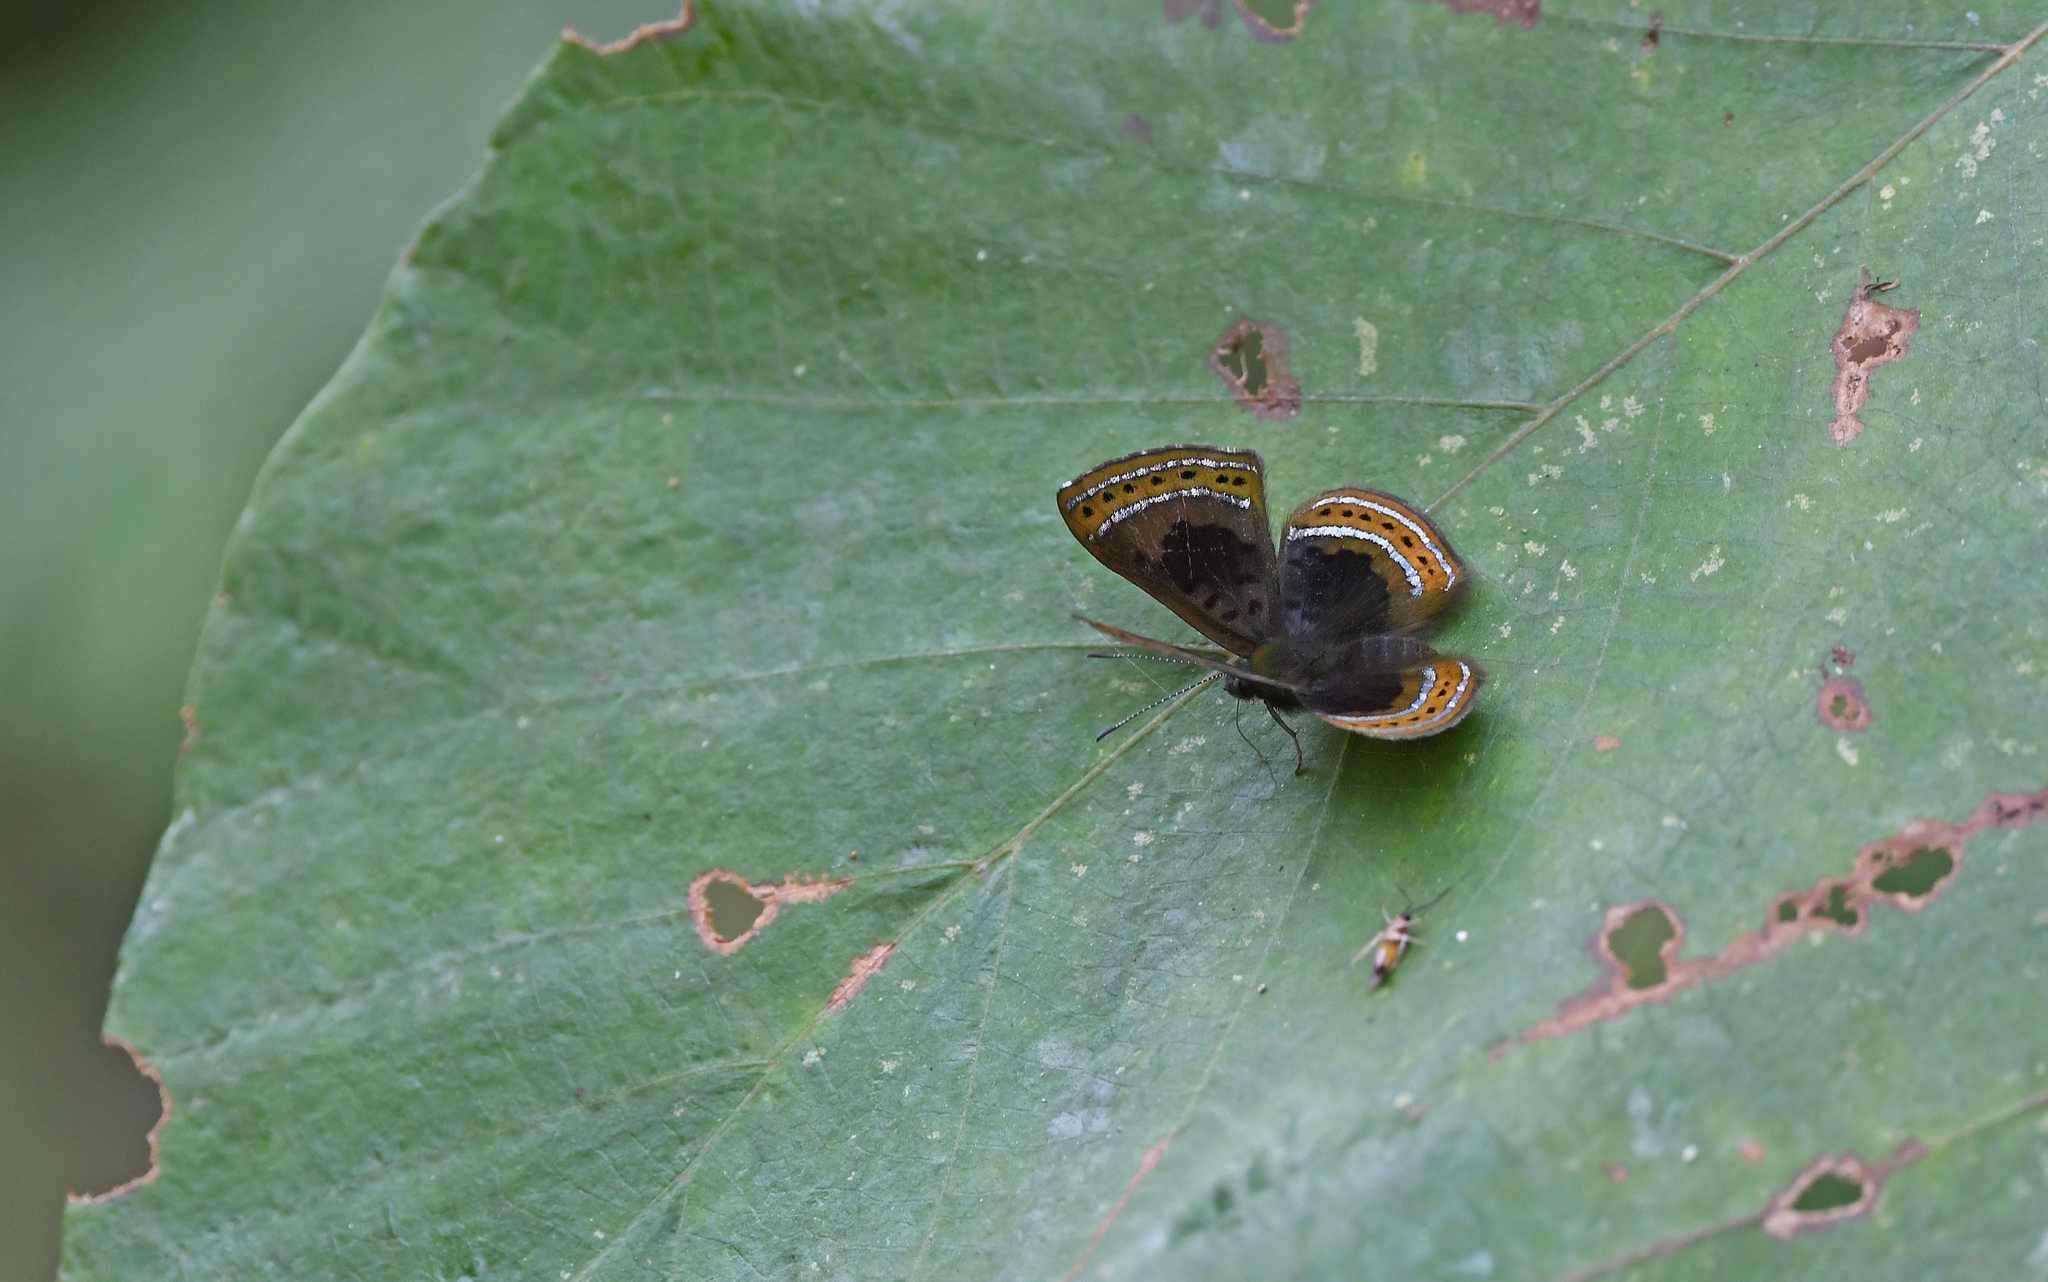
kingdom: Animalia
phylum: Arthropoda
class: Insecta
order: Lepidoptera
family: Riodinidae
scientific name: Riodinidae
